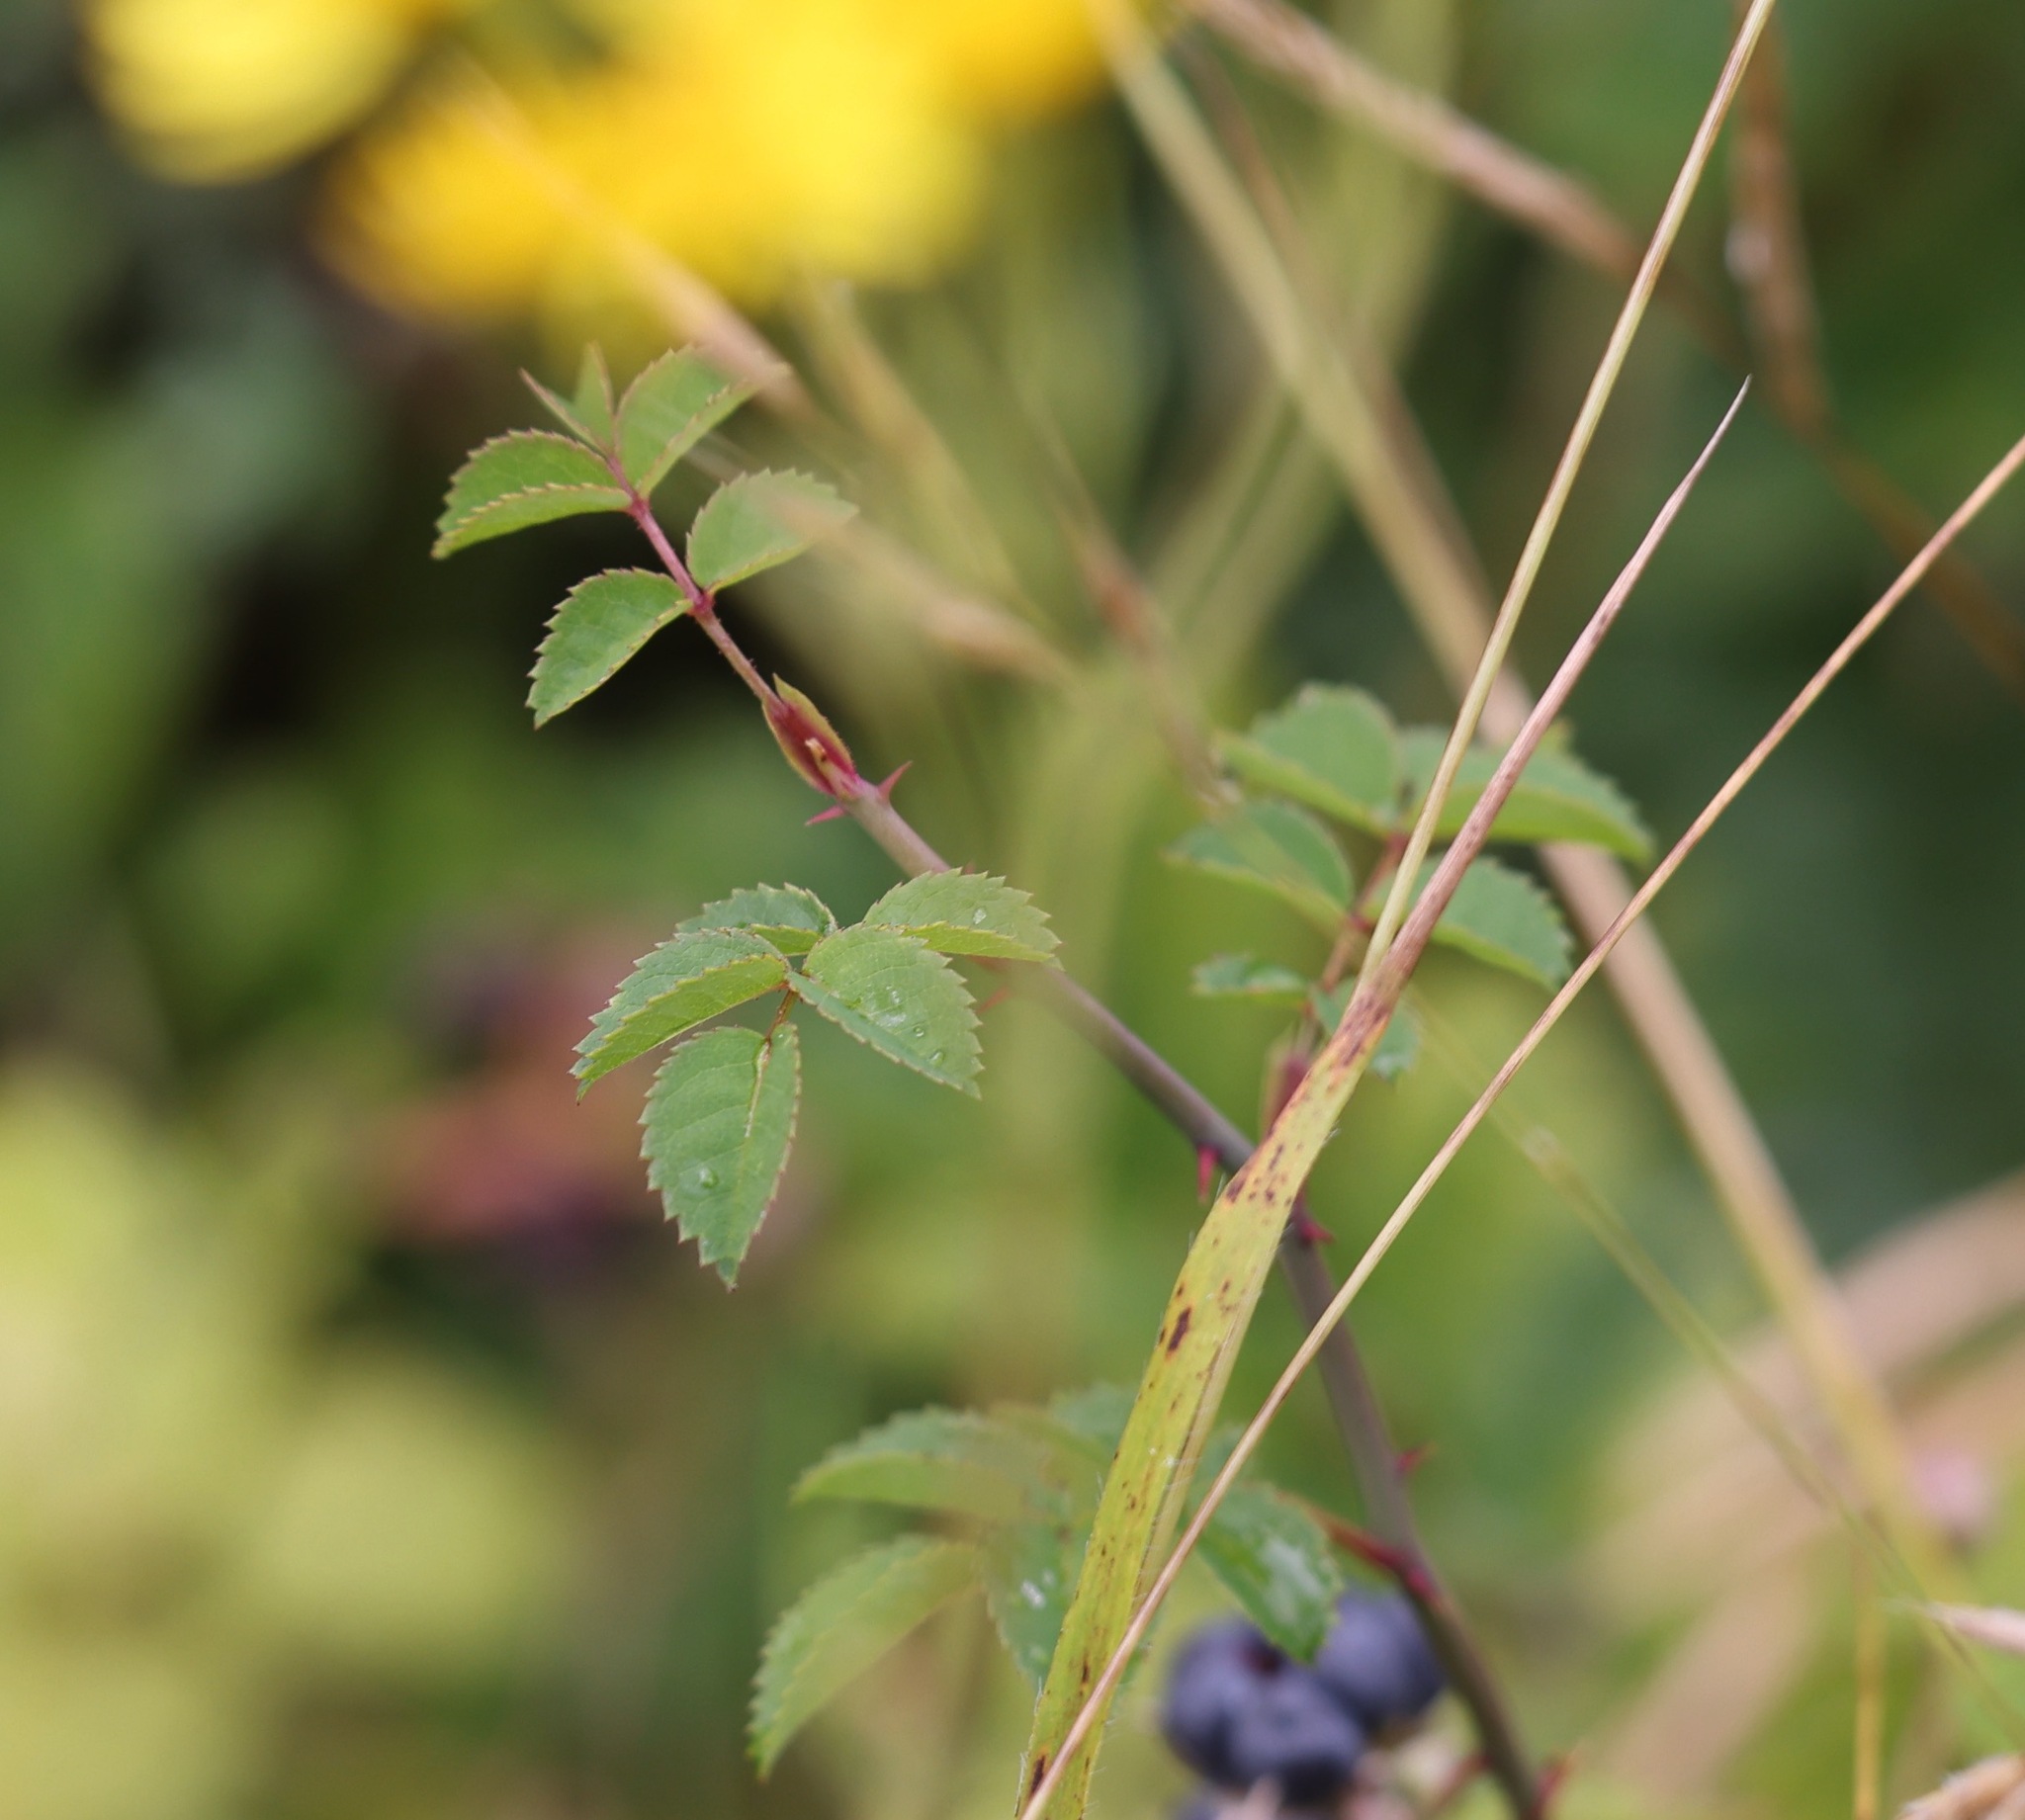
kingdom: Plantae
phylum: Tracheophyta
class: Magnoliopsida
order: Rosales
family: Rosaceae
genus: Rubus
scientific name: Rubus caesius
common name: Dewberry
